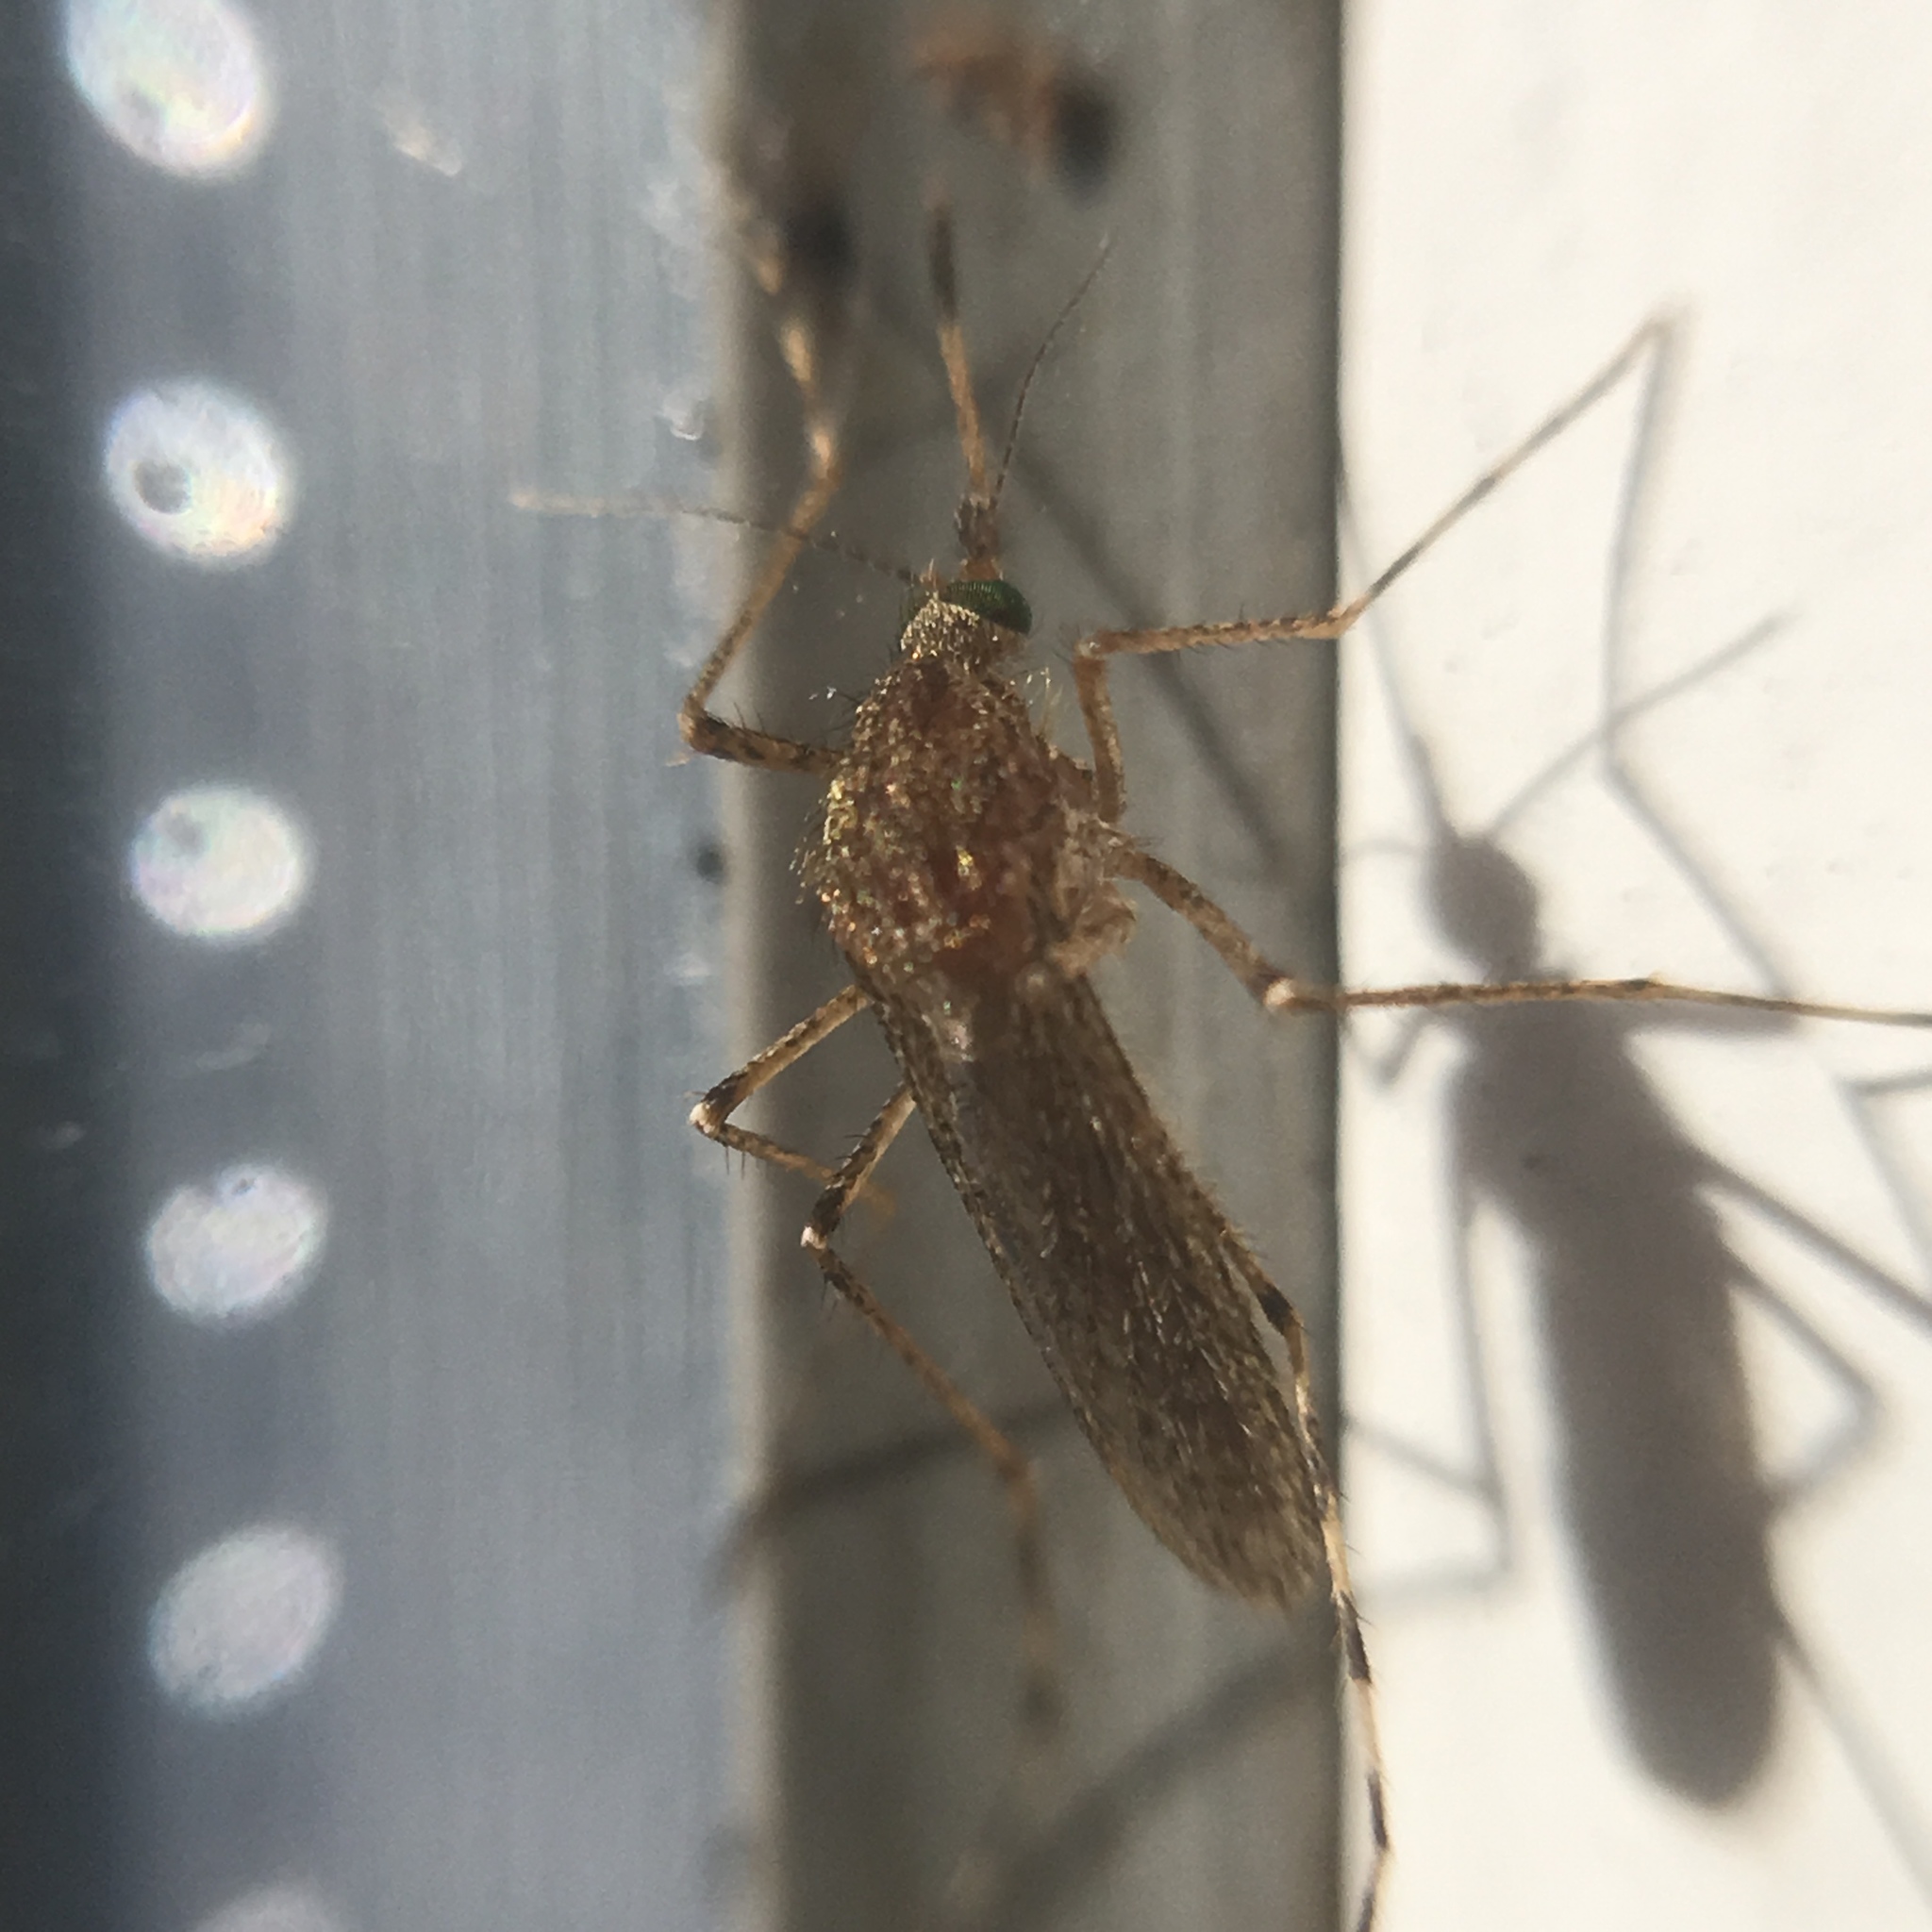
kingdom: Animalia
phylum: Arthropoda
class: Insecta
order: Diptera
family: Culicidae
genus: Coquillettidia
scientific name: Coquillettidia richiardii
